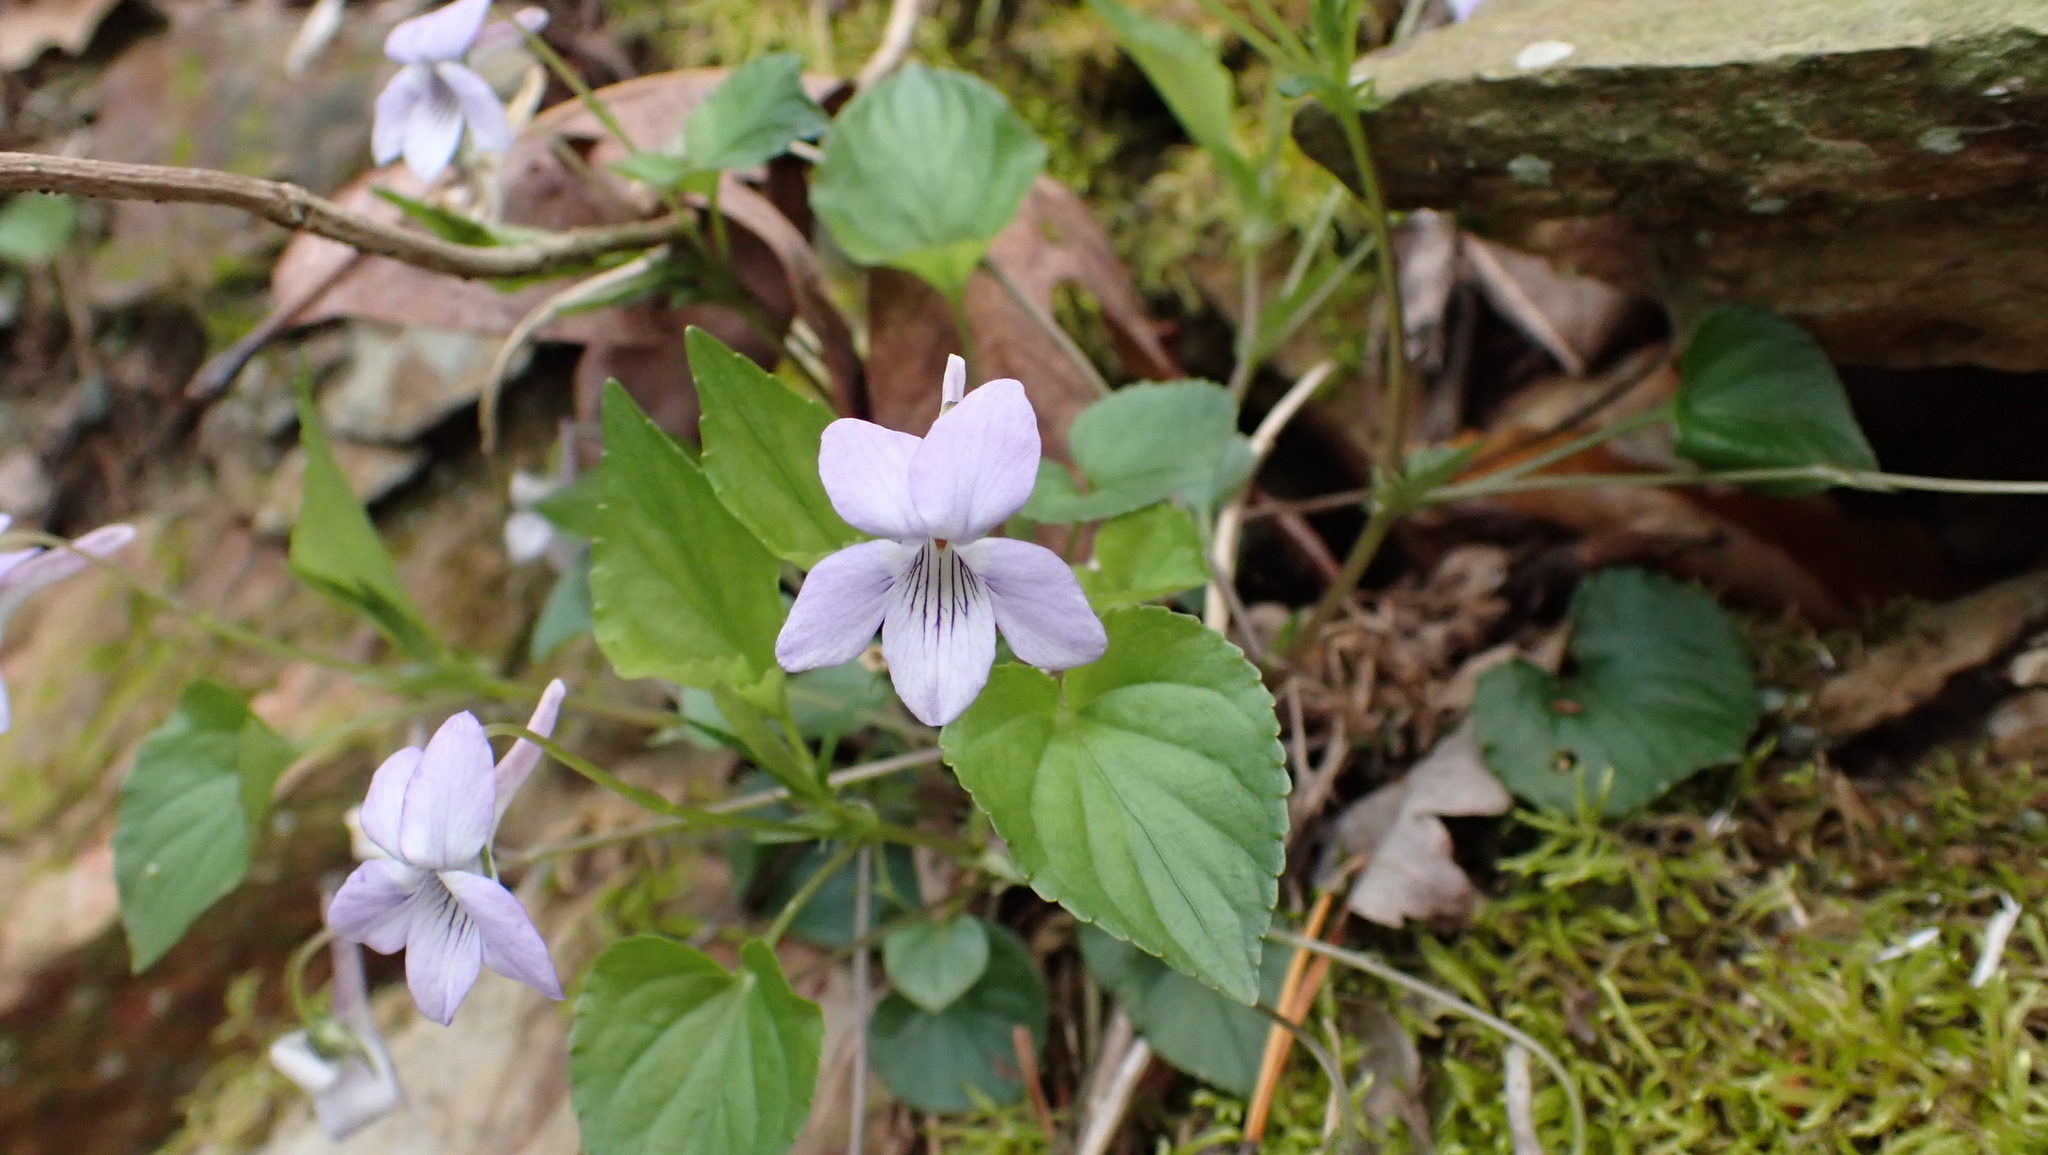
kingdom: Plantae
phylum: Tracheophyta
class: Magnoliopsida
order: Malpighiales
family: Violaceae
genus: Viola
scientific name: Viola rostrata
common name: Long-spur violet
